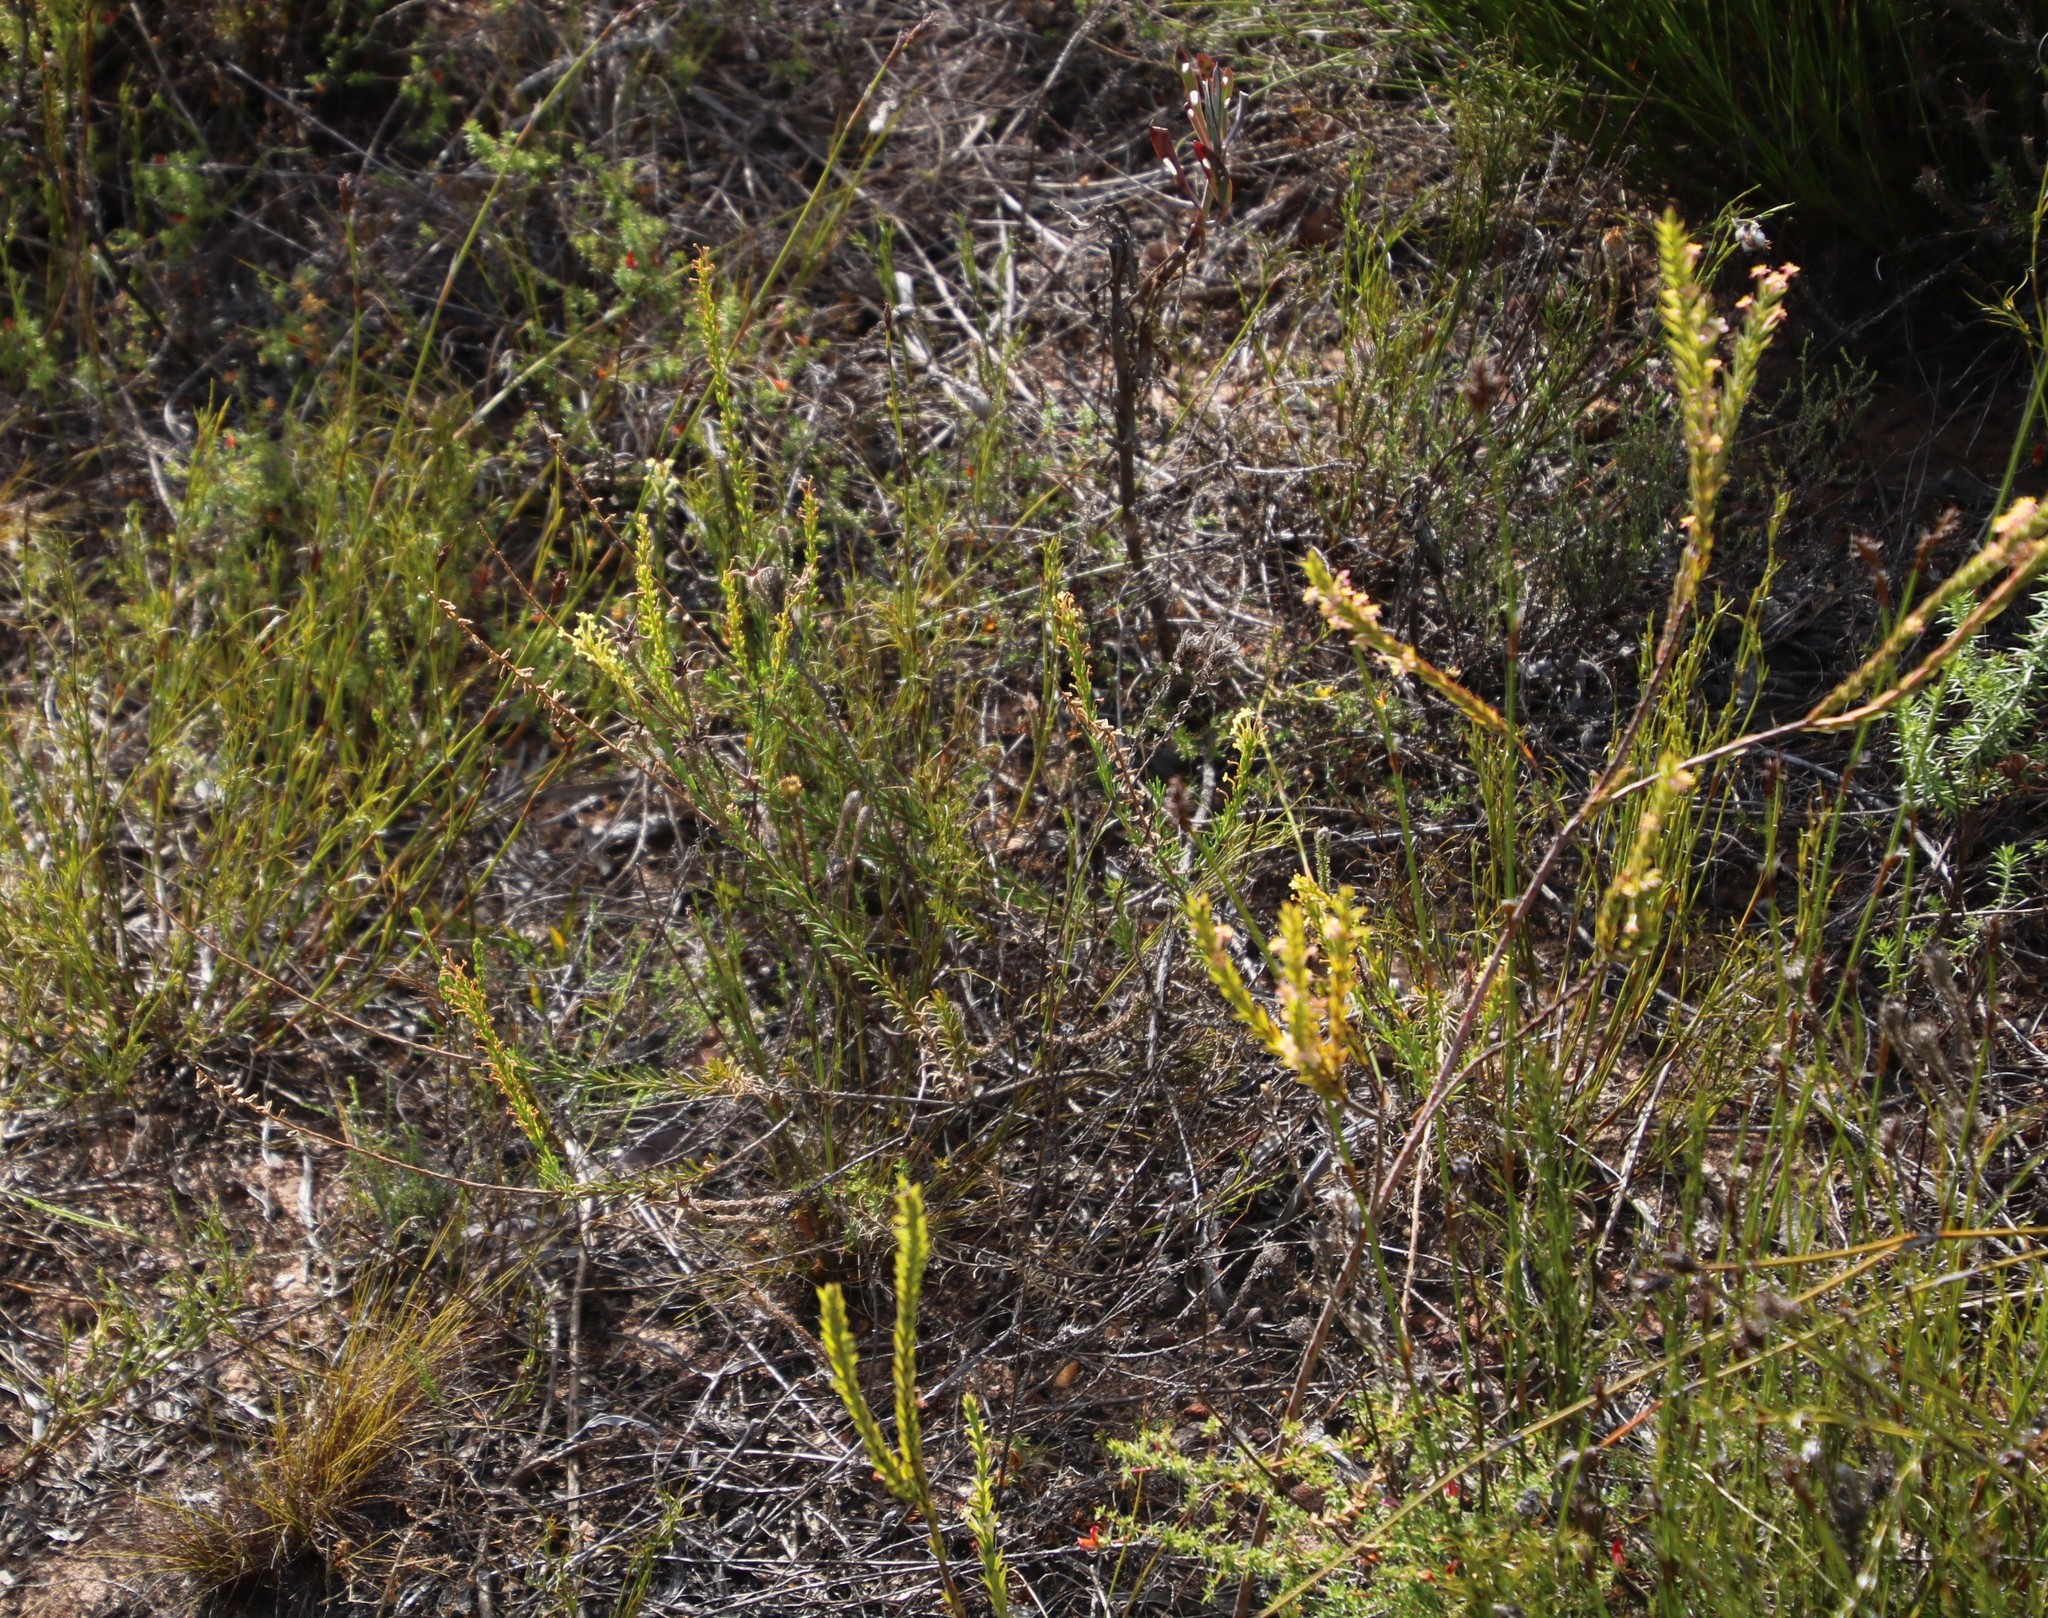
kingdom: Plantae
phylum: Tracheophyta
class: Magnoliopsida
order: Lamiales
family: Scrophulariaceae
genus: Microdon
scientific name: Microdon dubius
